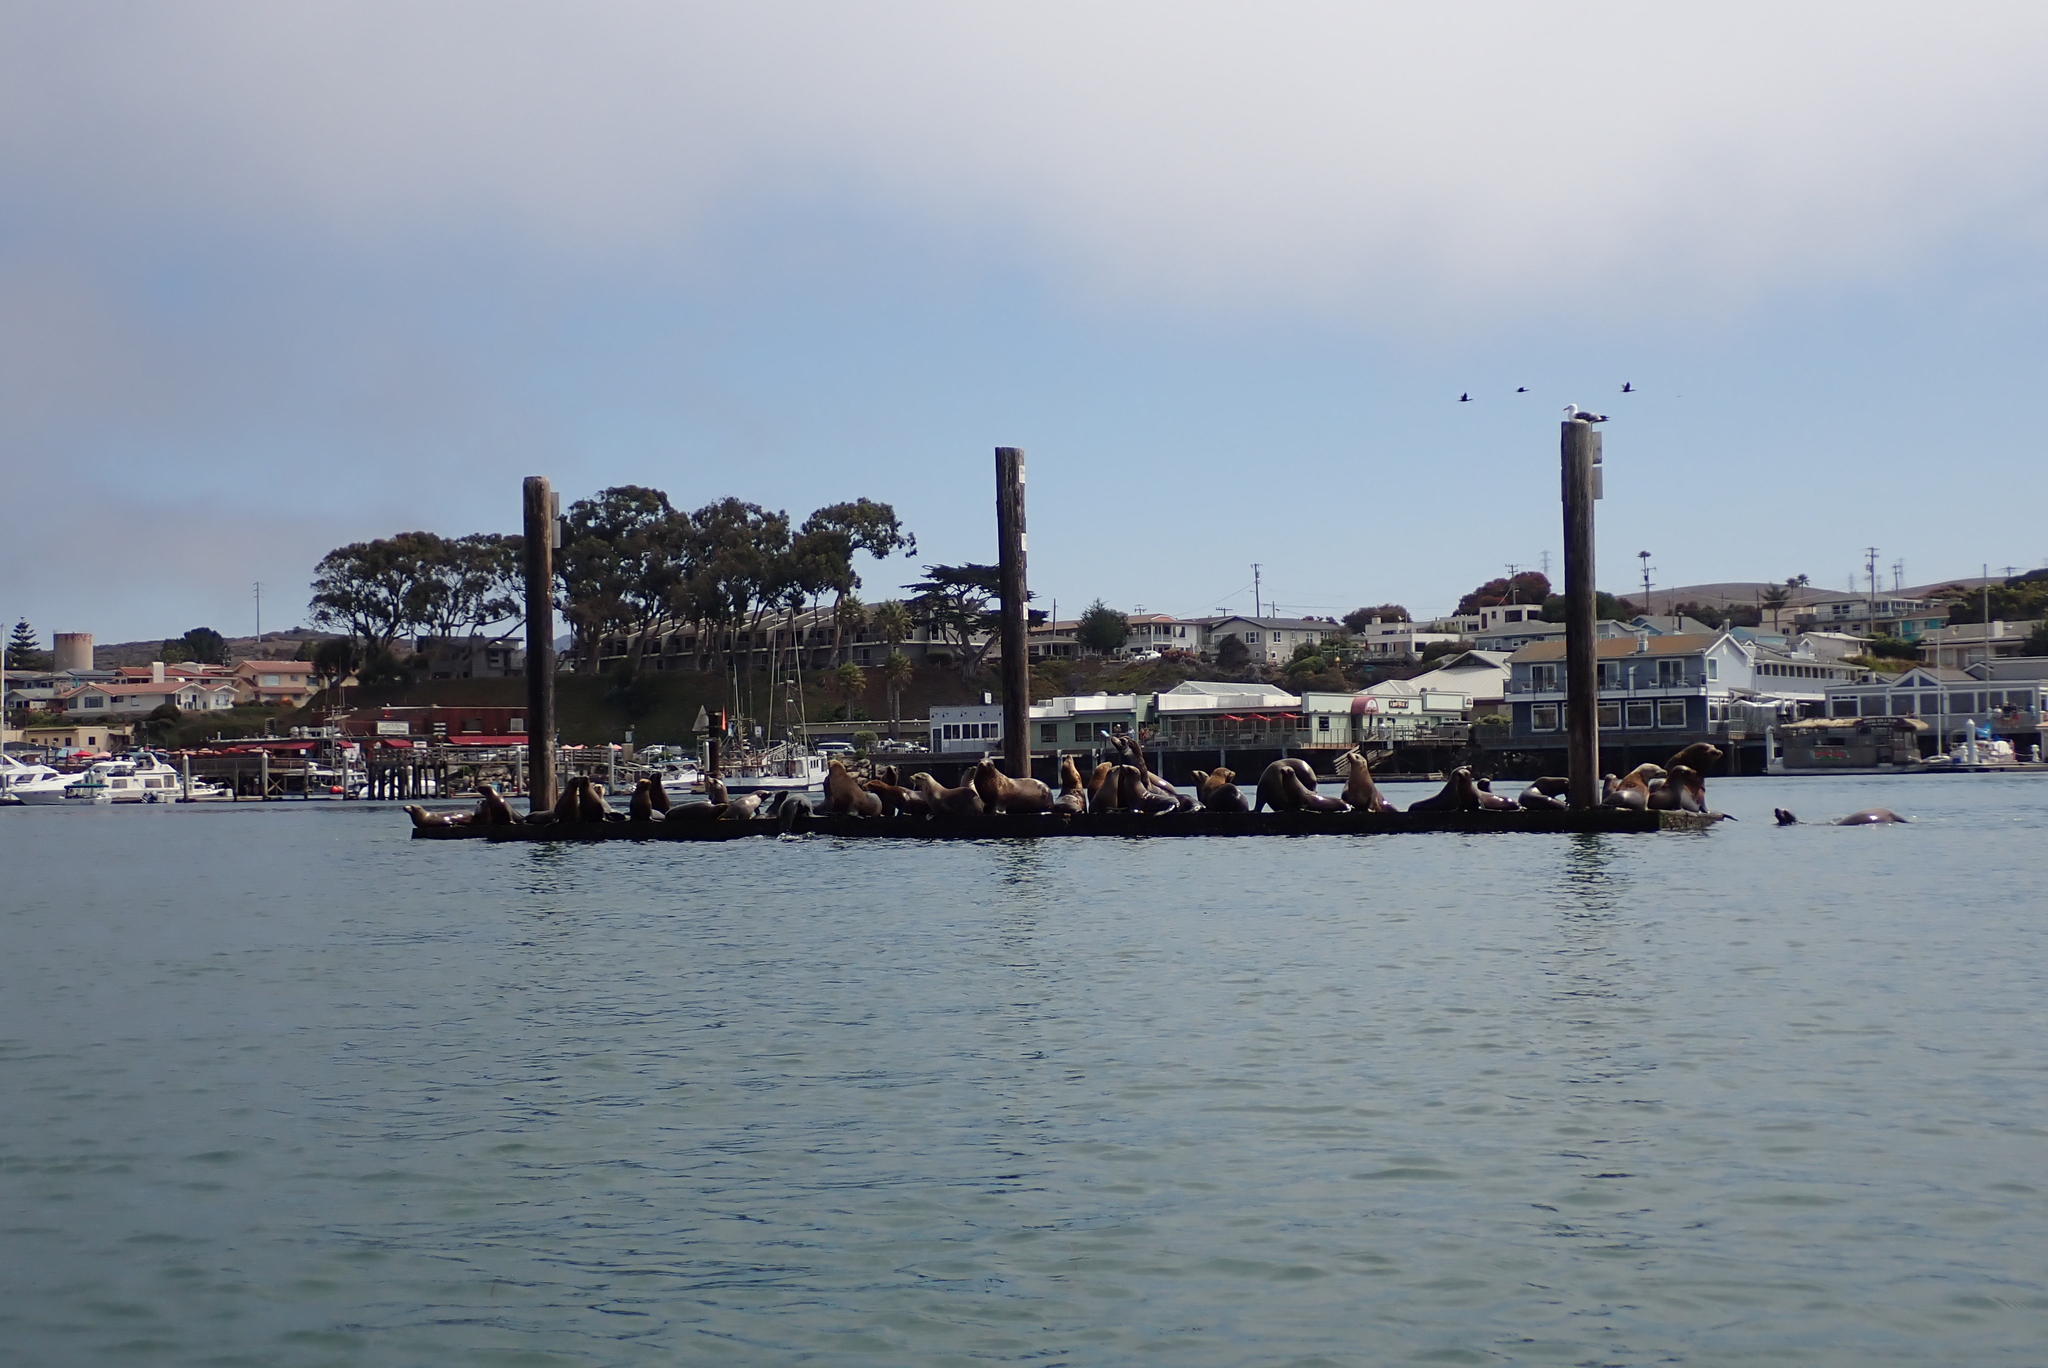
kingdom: Animalia
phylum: Chordata
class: Mammalia
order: Carnivora
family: Otariidae
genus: Zalophus
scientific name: Zalophus californianus
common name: California sea lion
